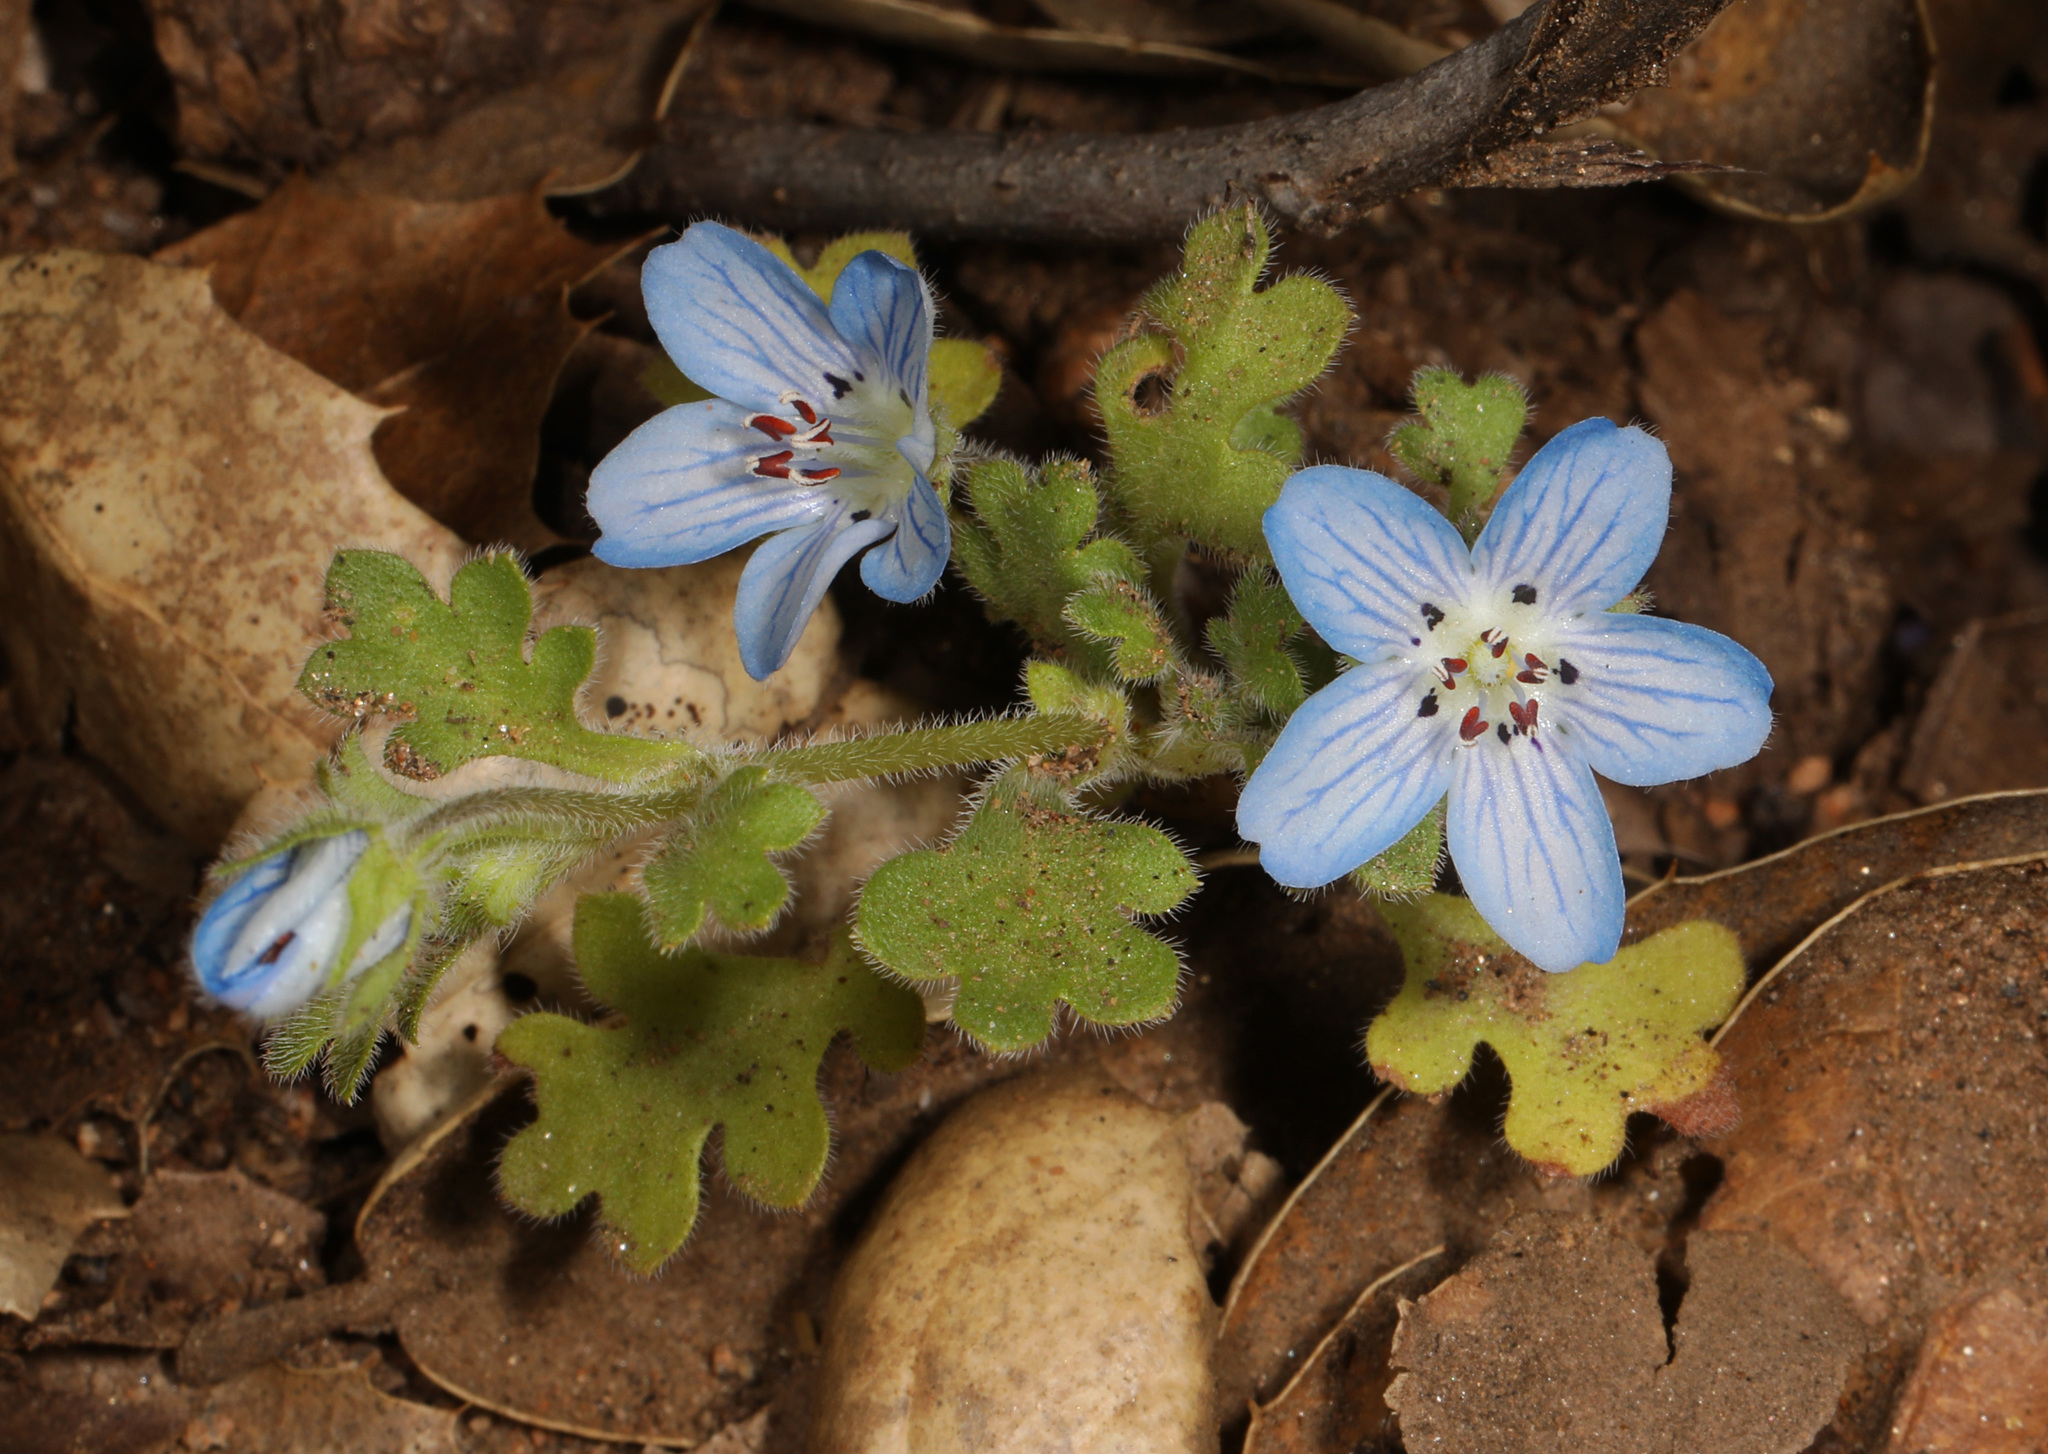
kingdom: Plantae
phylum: Tracheophyta
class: Magnoliopsida
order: Boraginales
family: Hydrophyllaceae
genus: Nemophila
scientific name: Nemophila menziesii
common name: Baby's-blue-eyes
